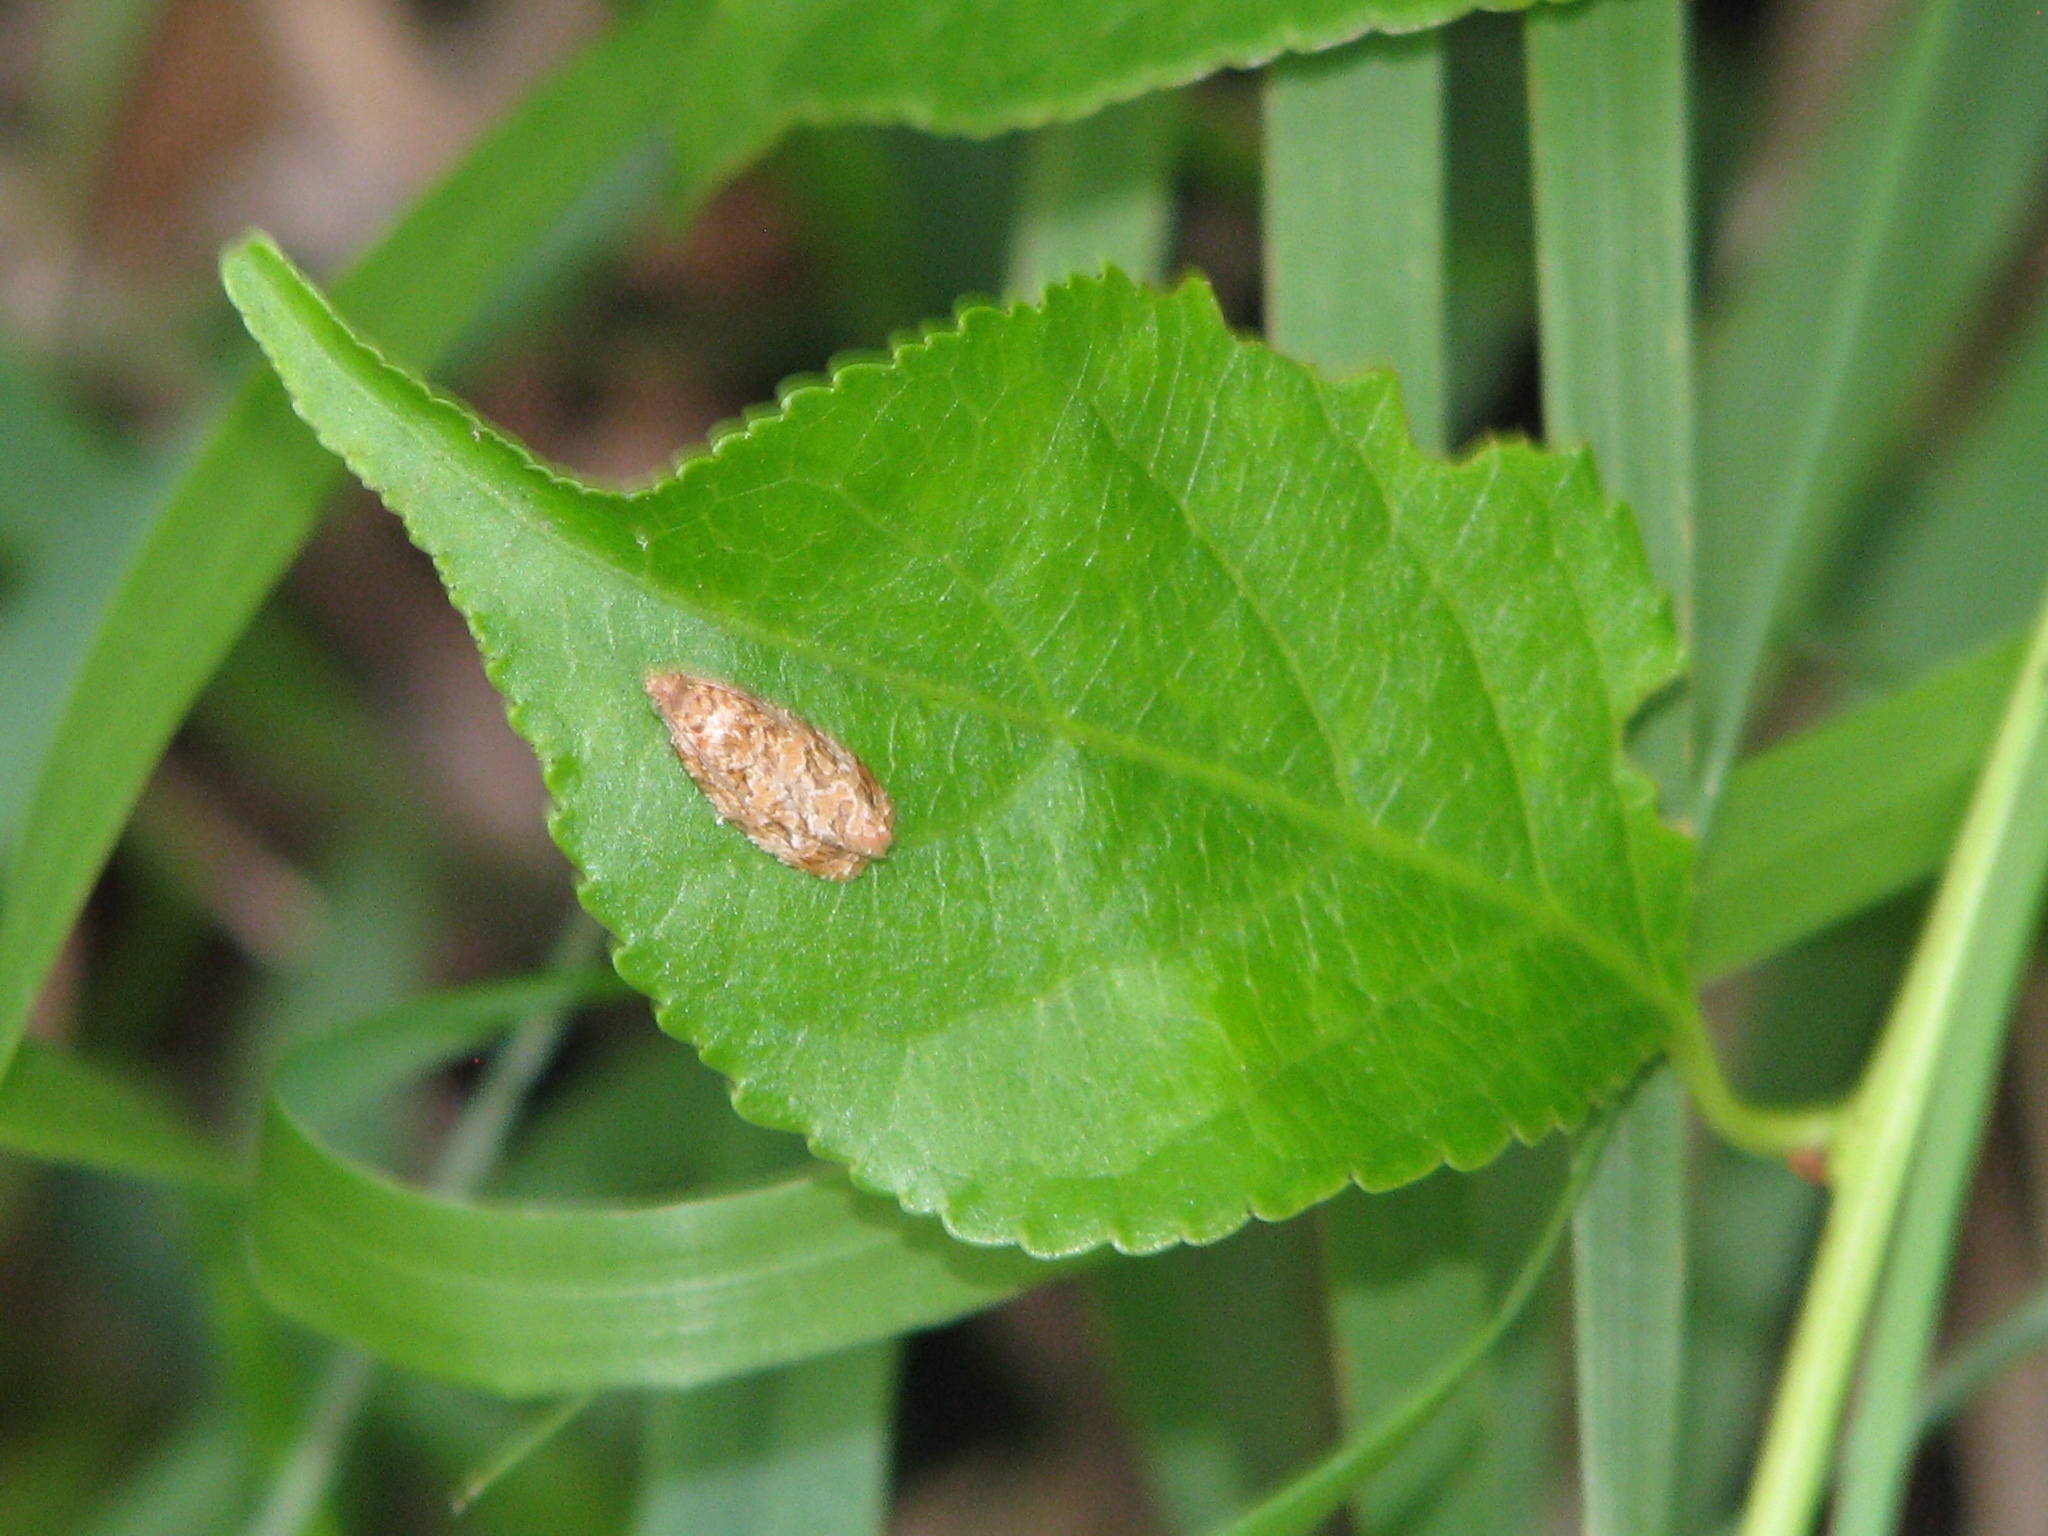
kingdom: Animalia
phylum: Arthropoda
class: Insecta
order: Lepidoptera
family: Tortricidae
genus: Phaecasiophora
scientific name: Phaecasiophora niveiguttana
